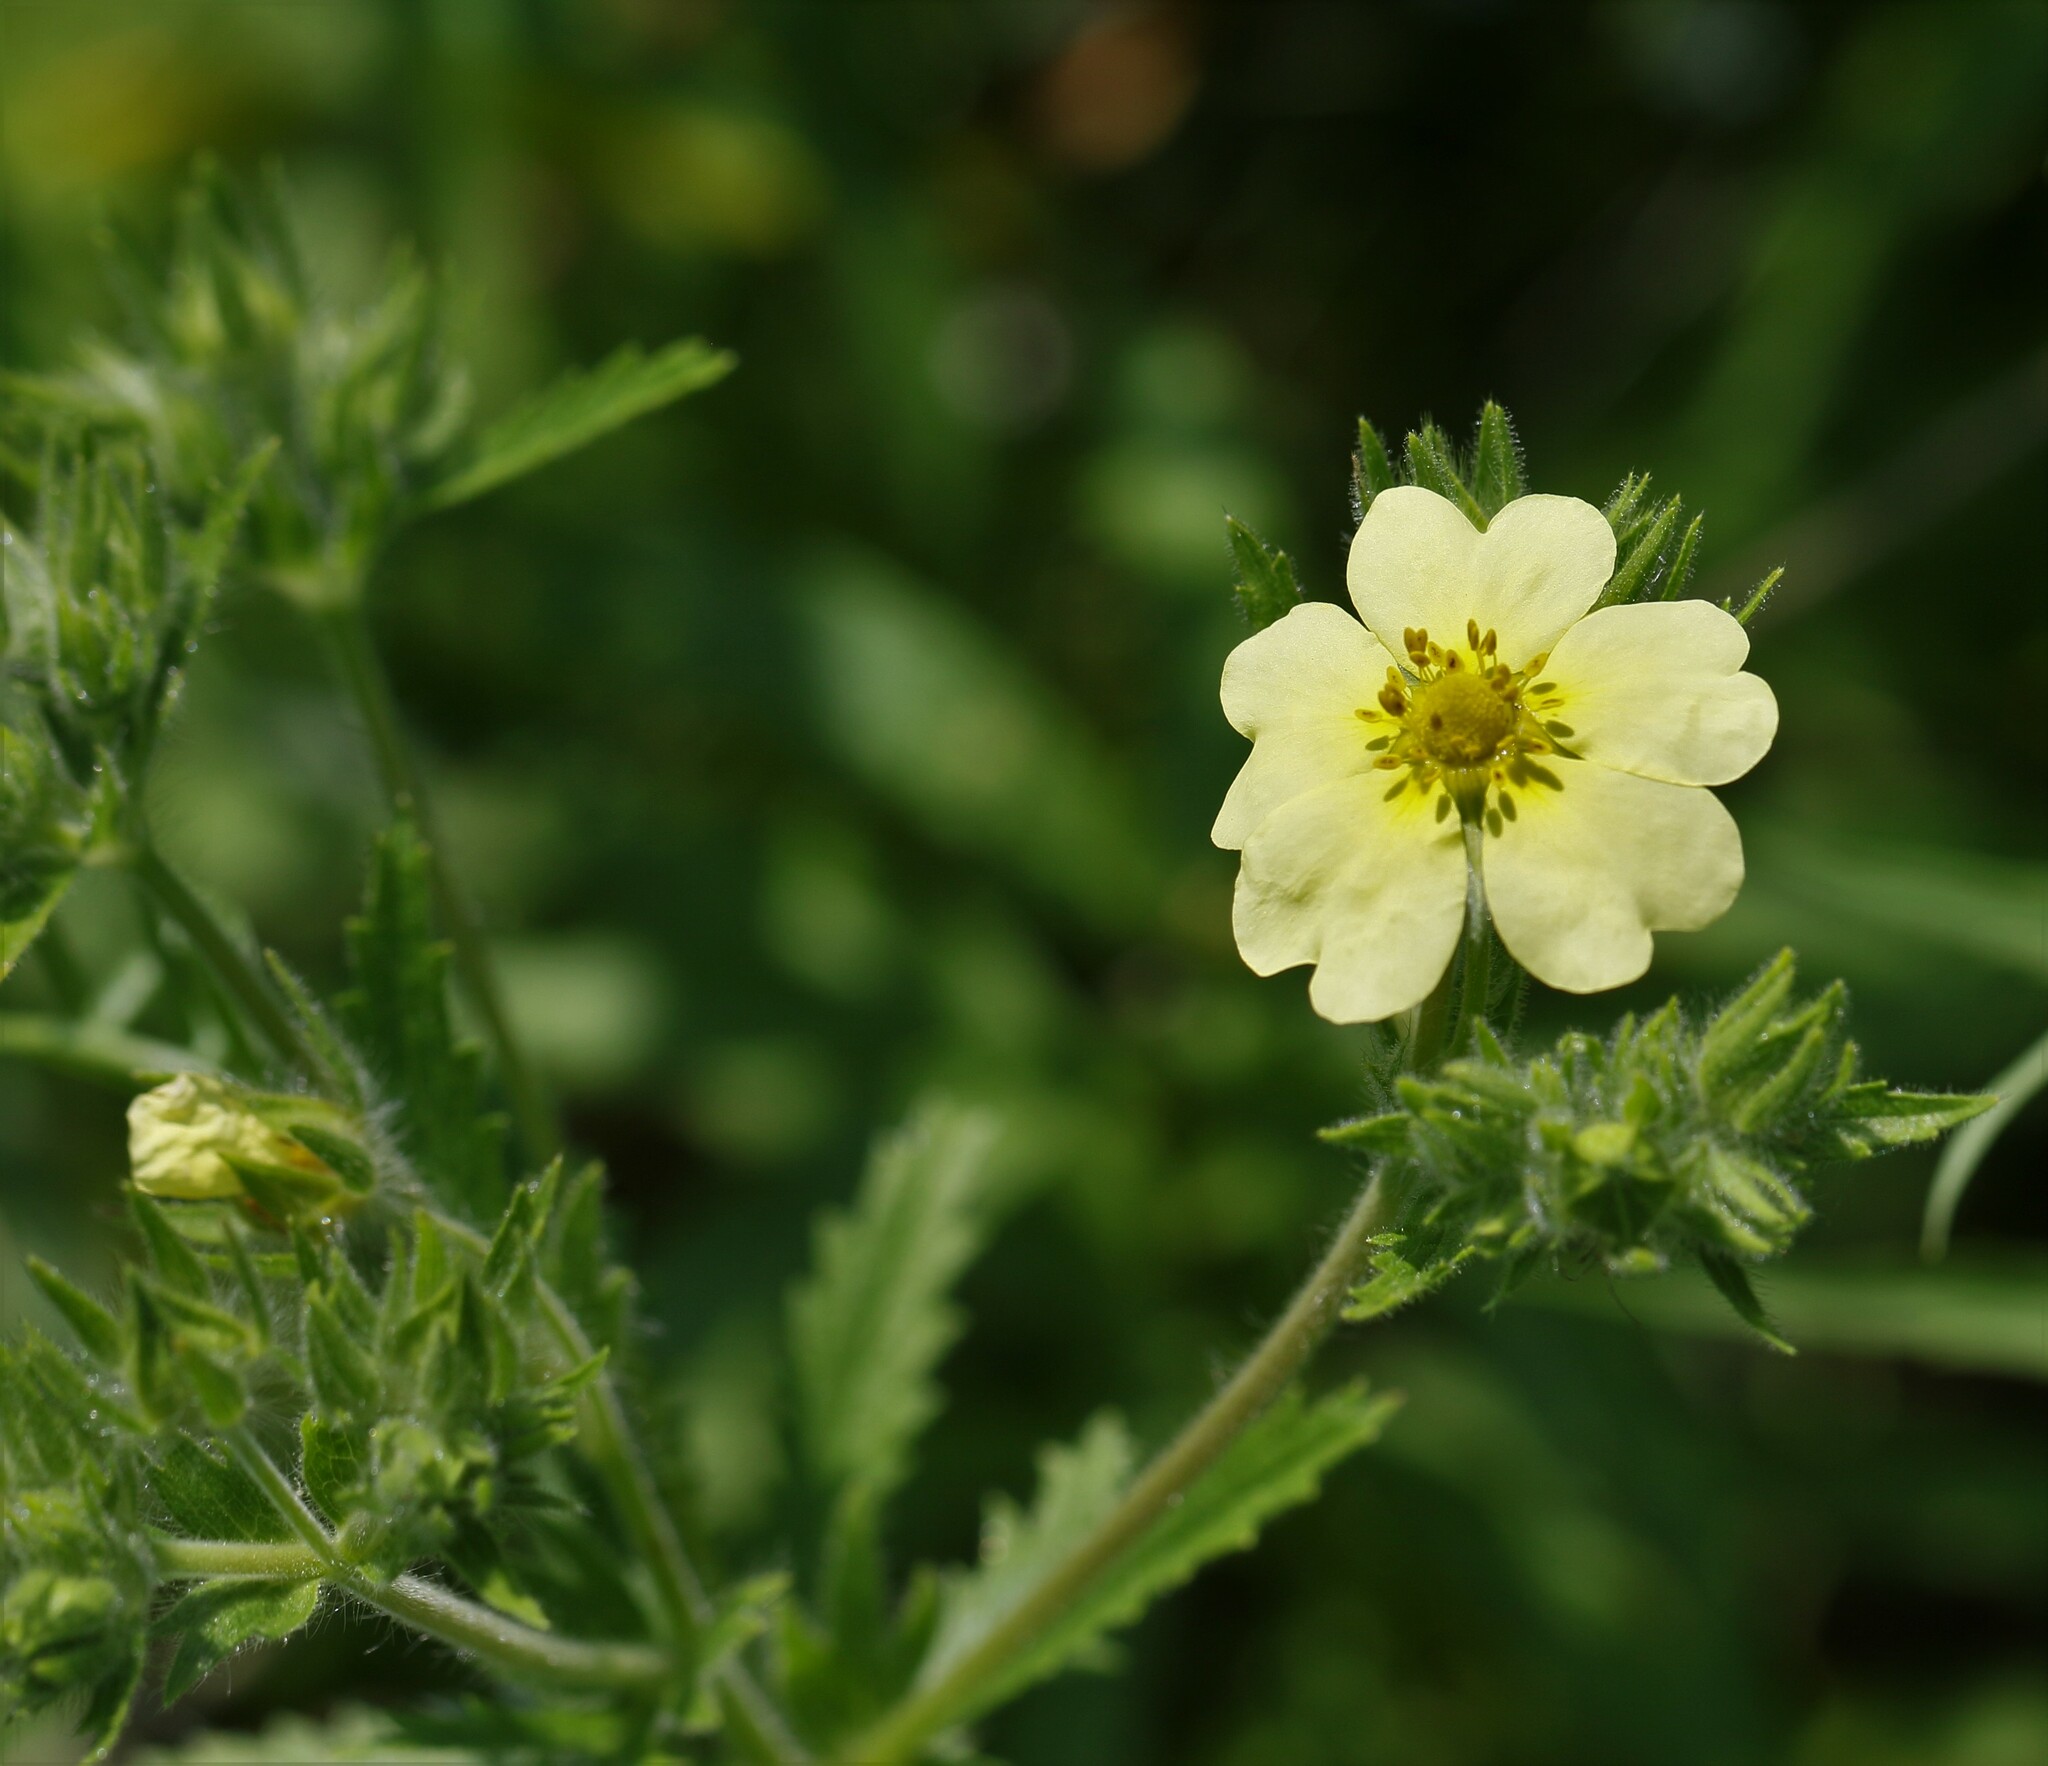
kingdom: Plantae
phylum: Tracheophyta
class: Magnoliopsida
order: Rosales
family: Rosaceae
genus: Potentilla
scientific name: Potentilla recta
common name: Sulphur cinquefoil
